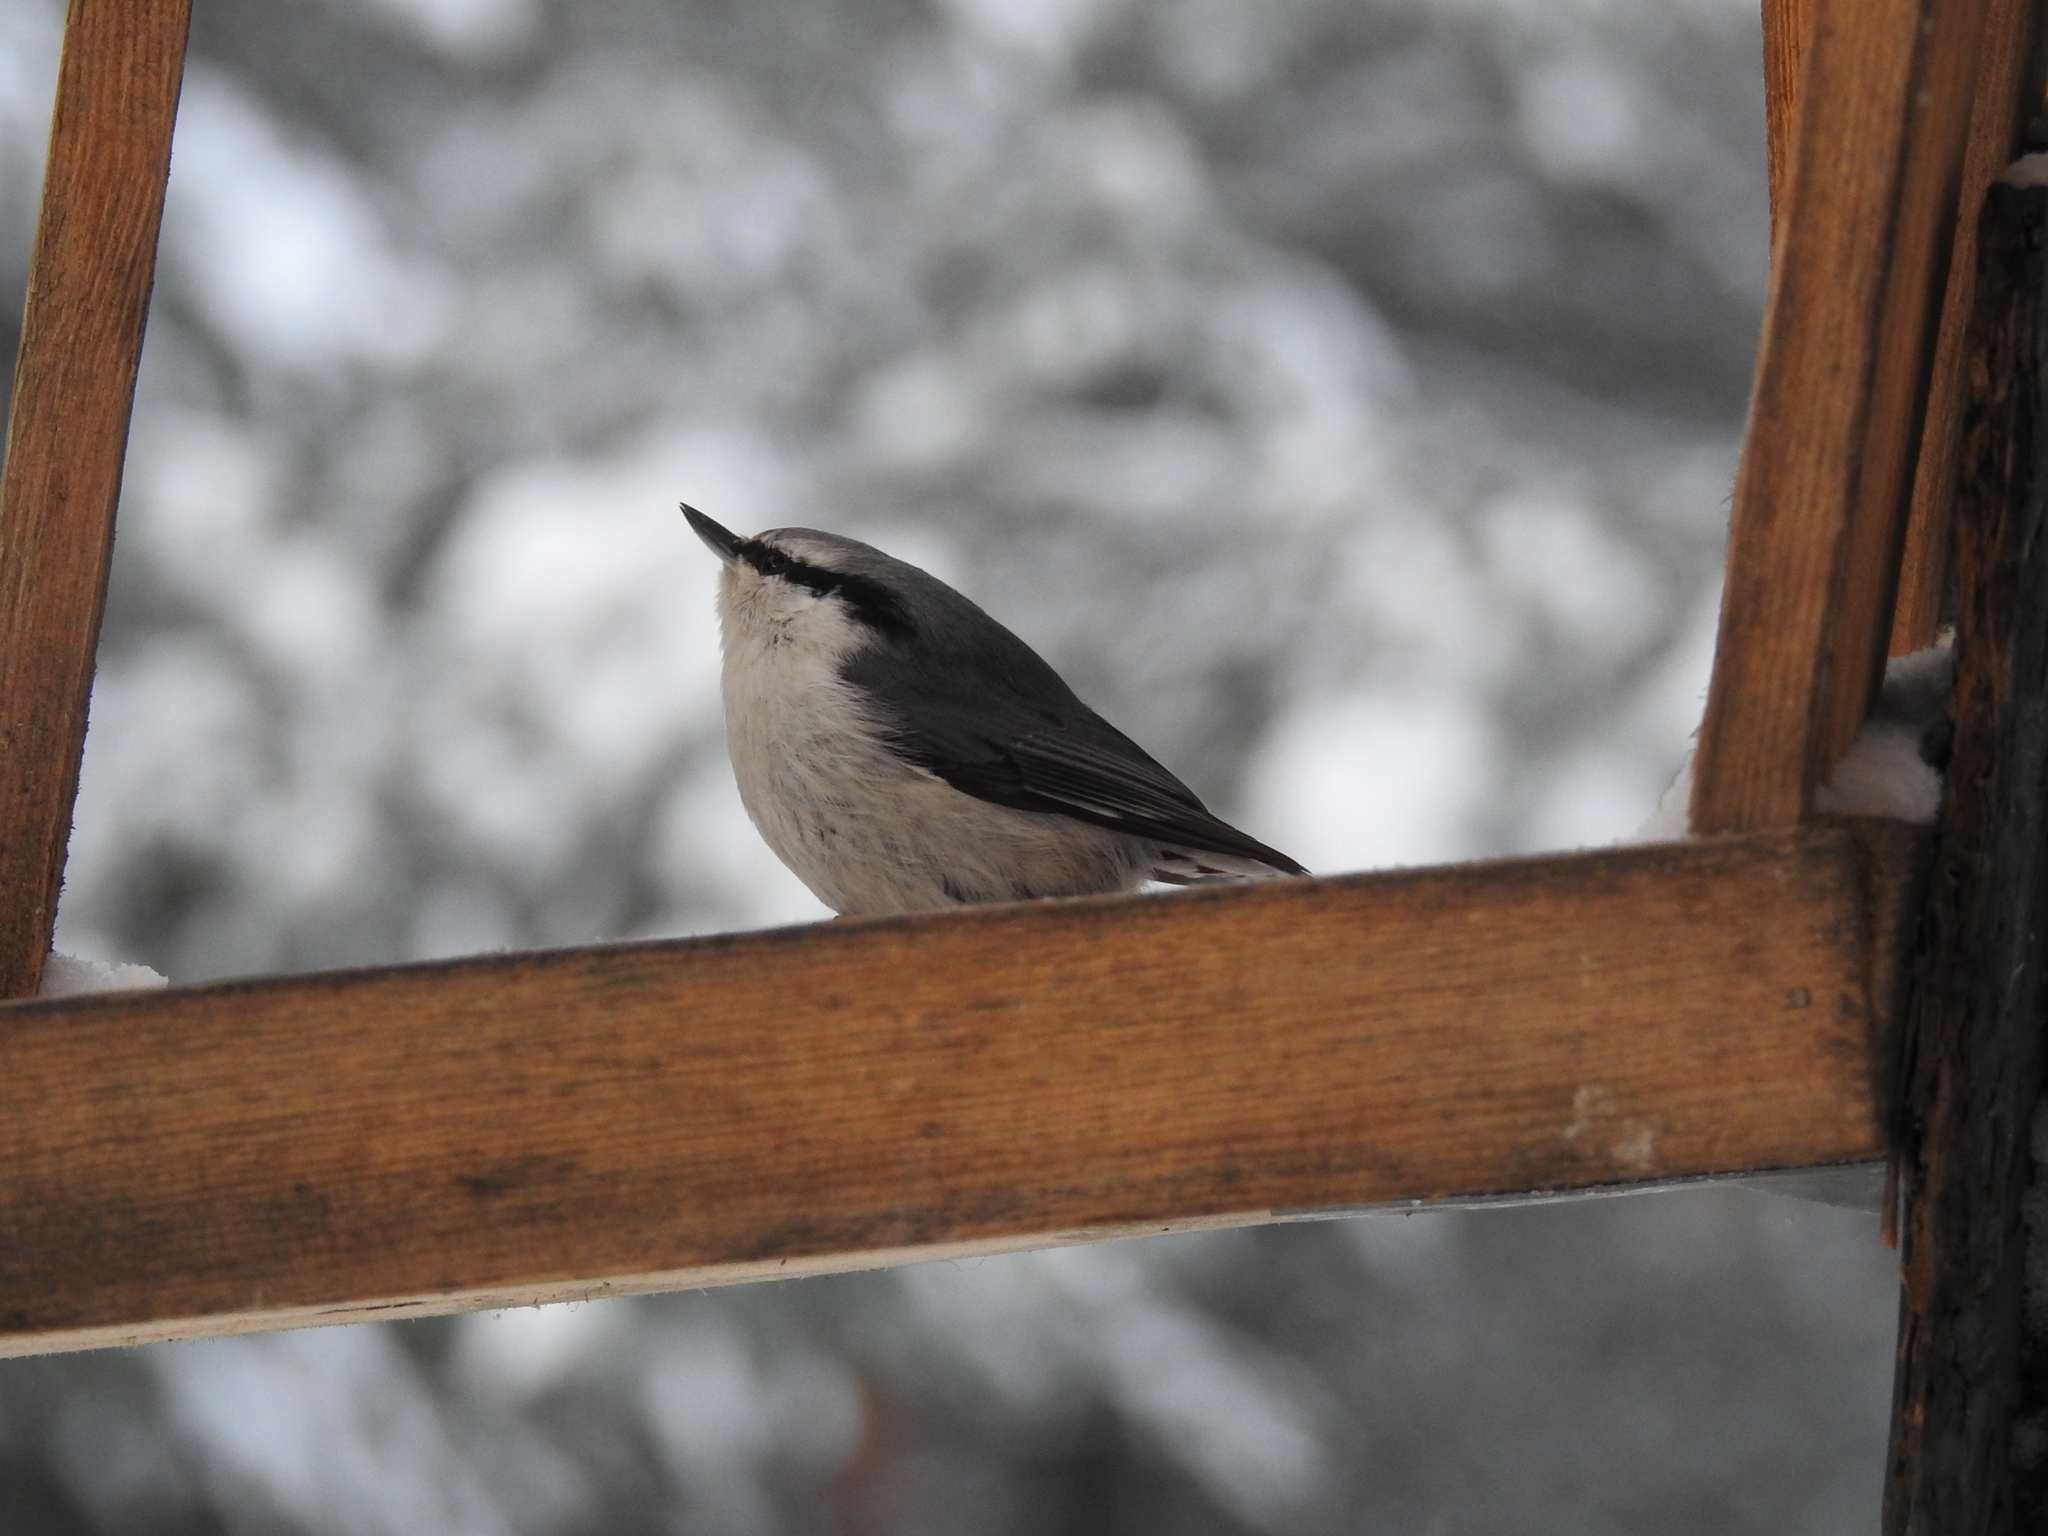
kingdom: Animalia
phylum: Chordata
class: Aves
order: Passeriformes
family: Sittidae
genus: Sitta
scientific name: Sitta europaea
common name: Eurasian nuthatch
